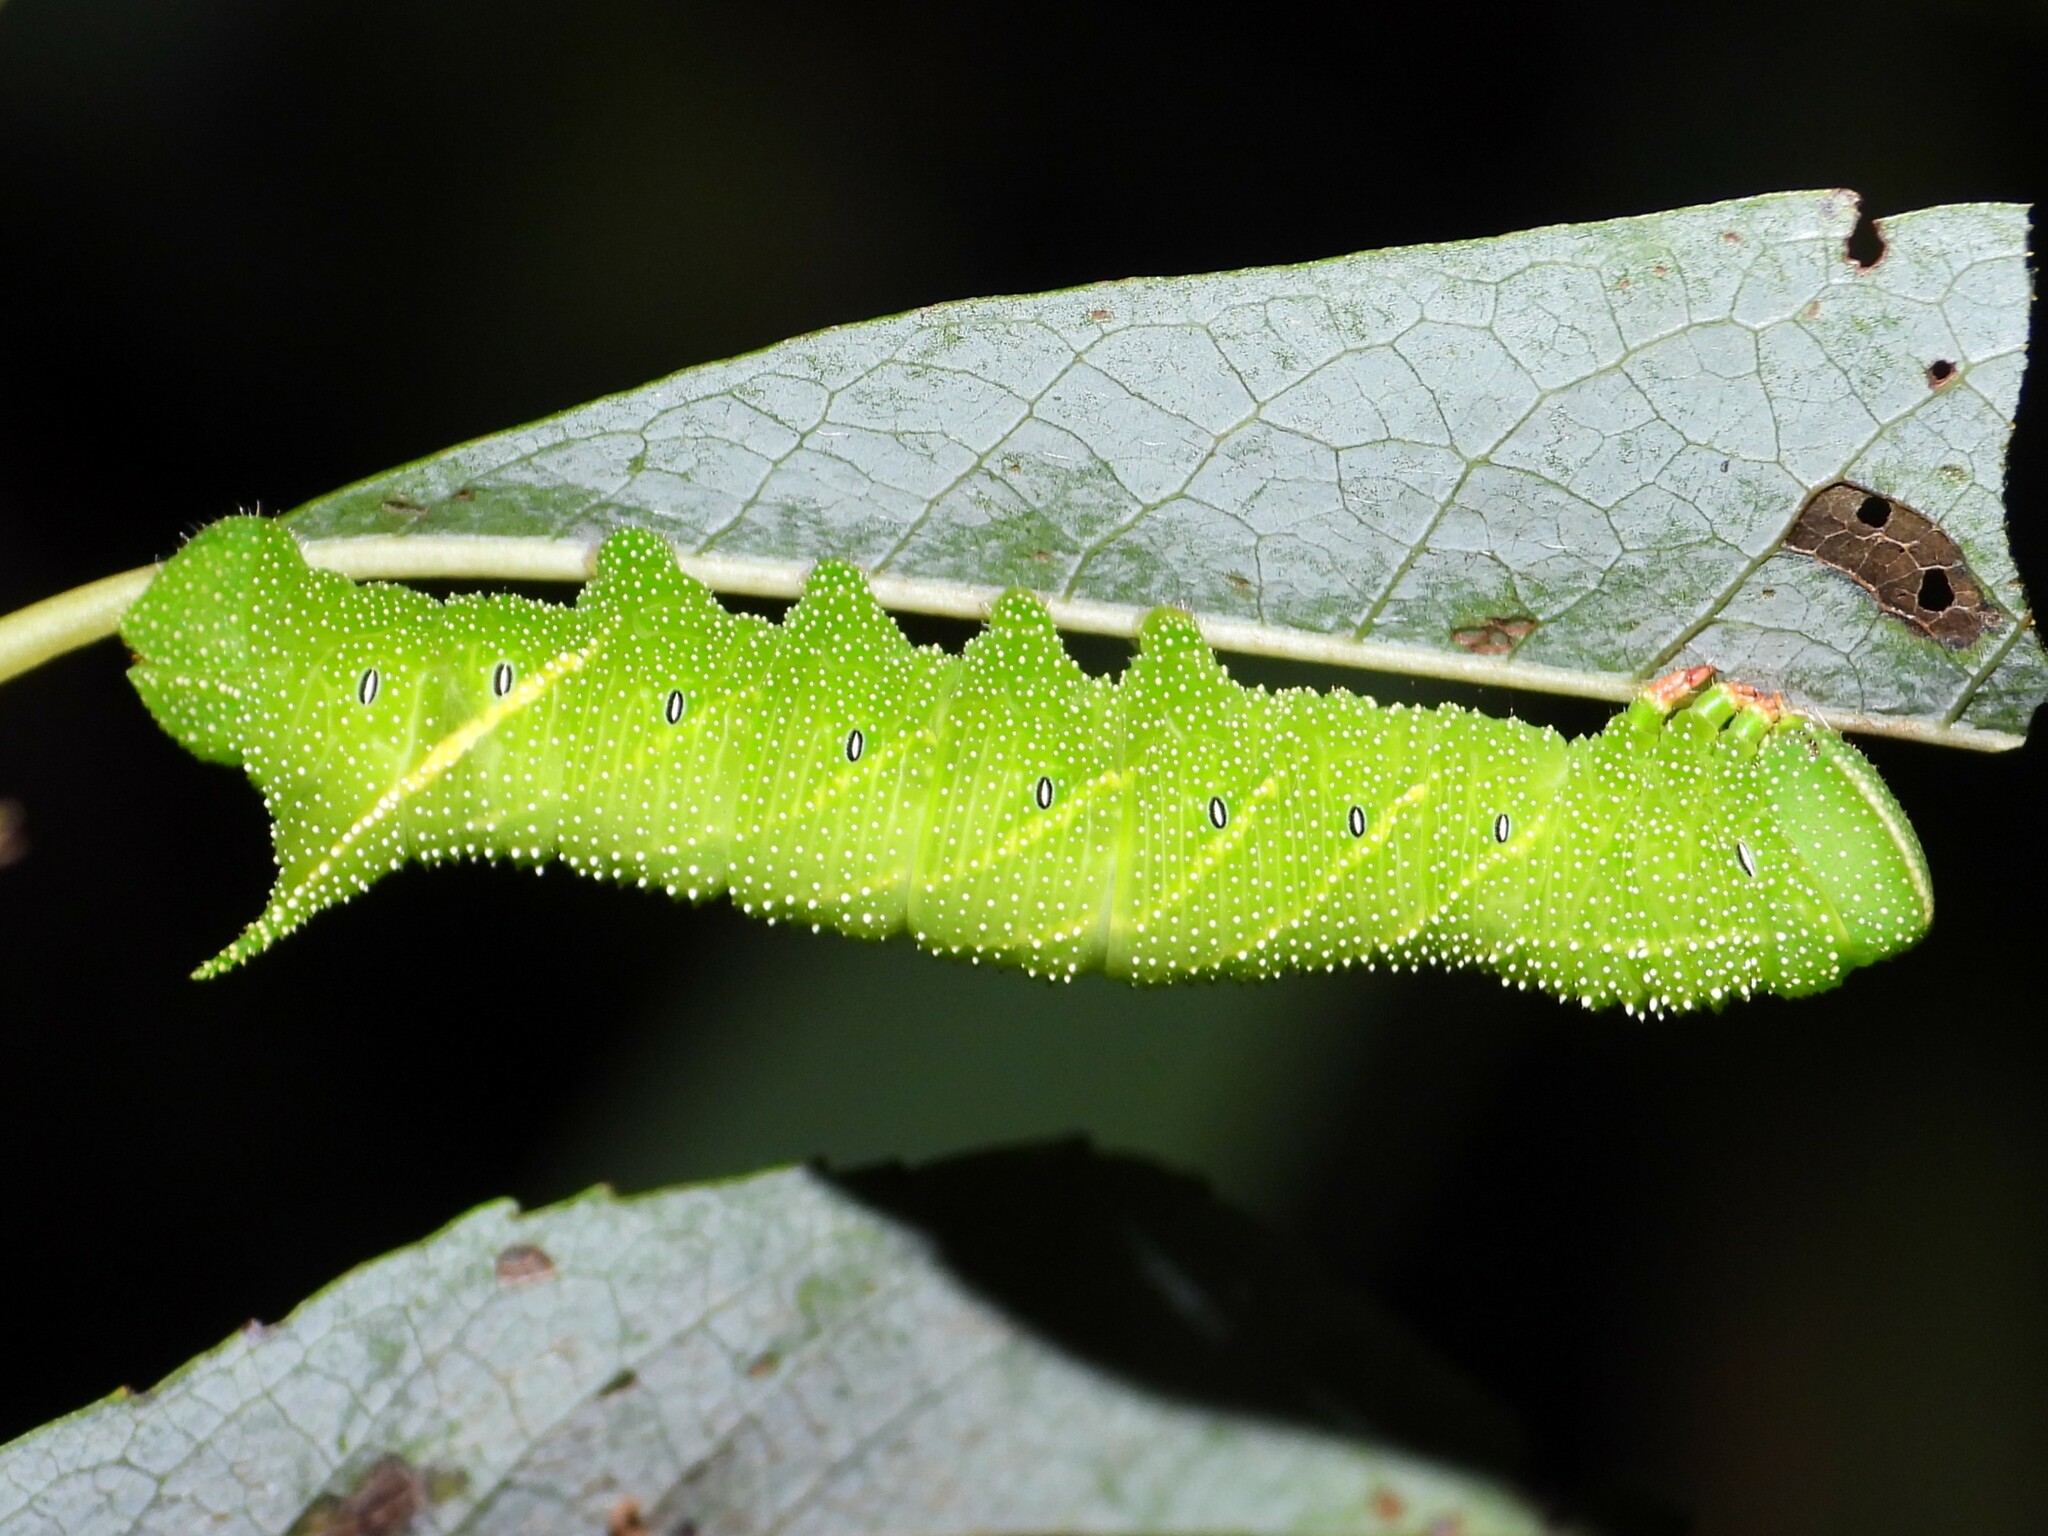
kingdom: Animalia
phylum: Arthropoda
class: Insecta
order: Lepidoptera
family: Sphingidae
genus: Paonias
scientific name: Paonias excaecata
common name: Blind-eyed sphinx
